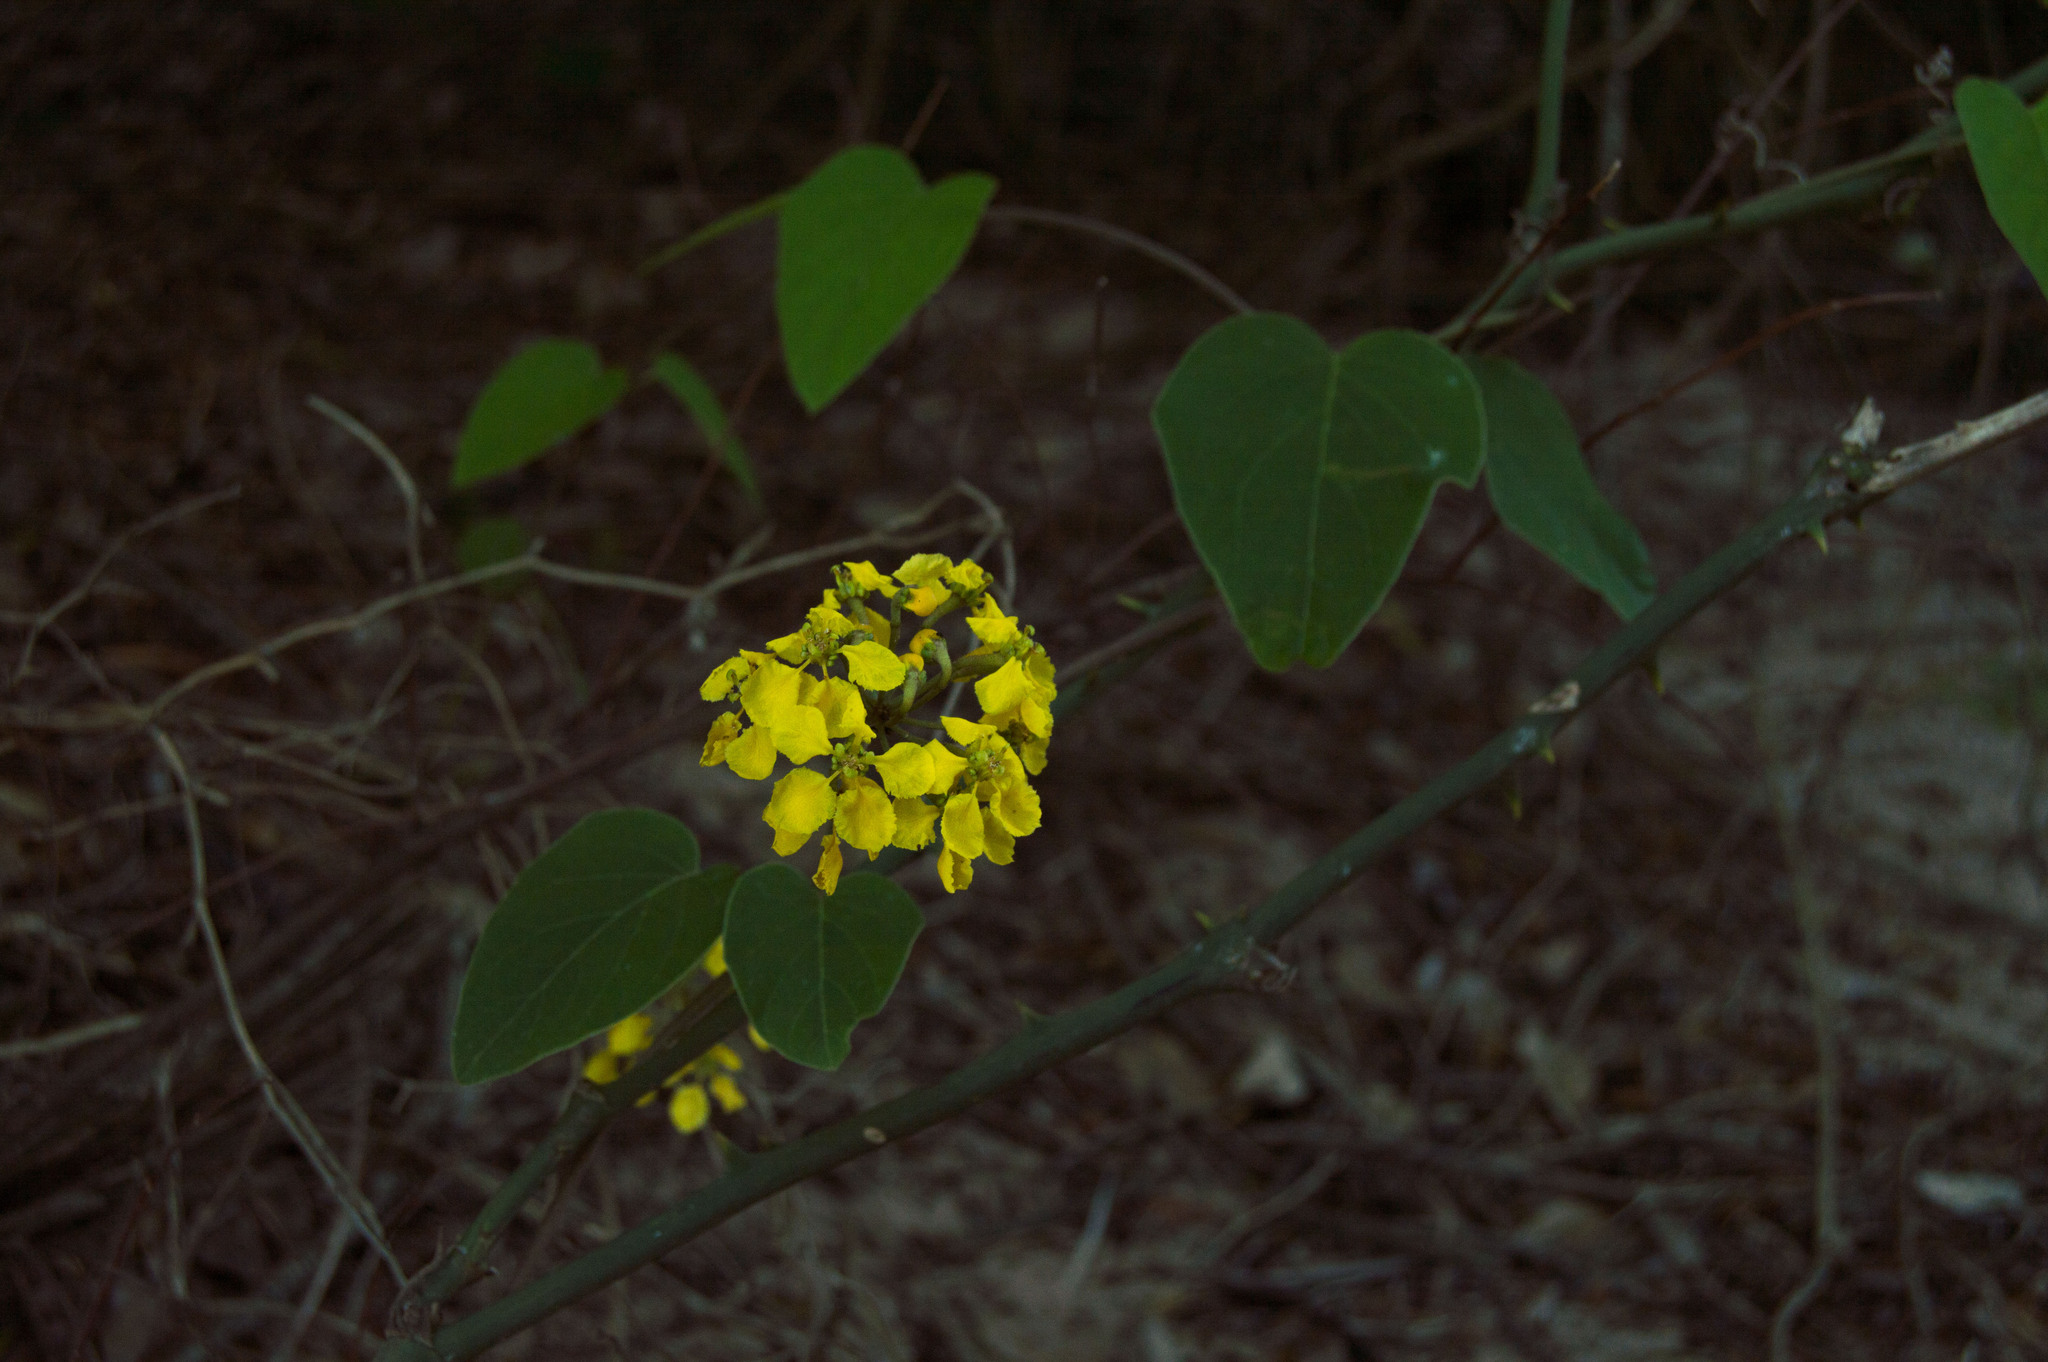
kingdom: Plantae
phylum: Tracheophyta
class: Magnoliopsida
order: Malpighiales
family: Malpighiaceae
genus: Stigmaphyllon
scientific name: Stigmaphyllon bonariense
